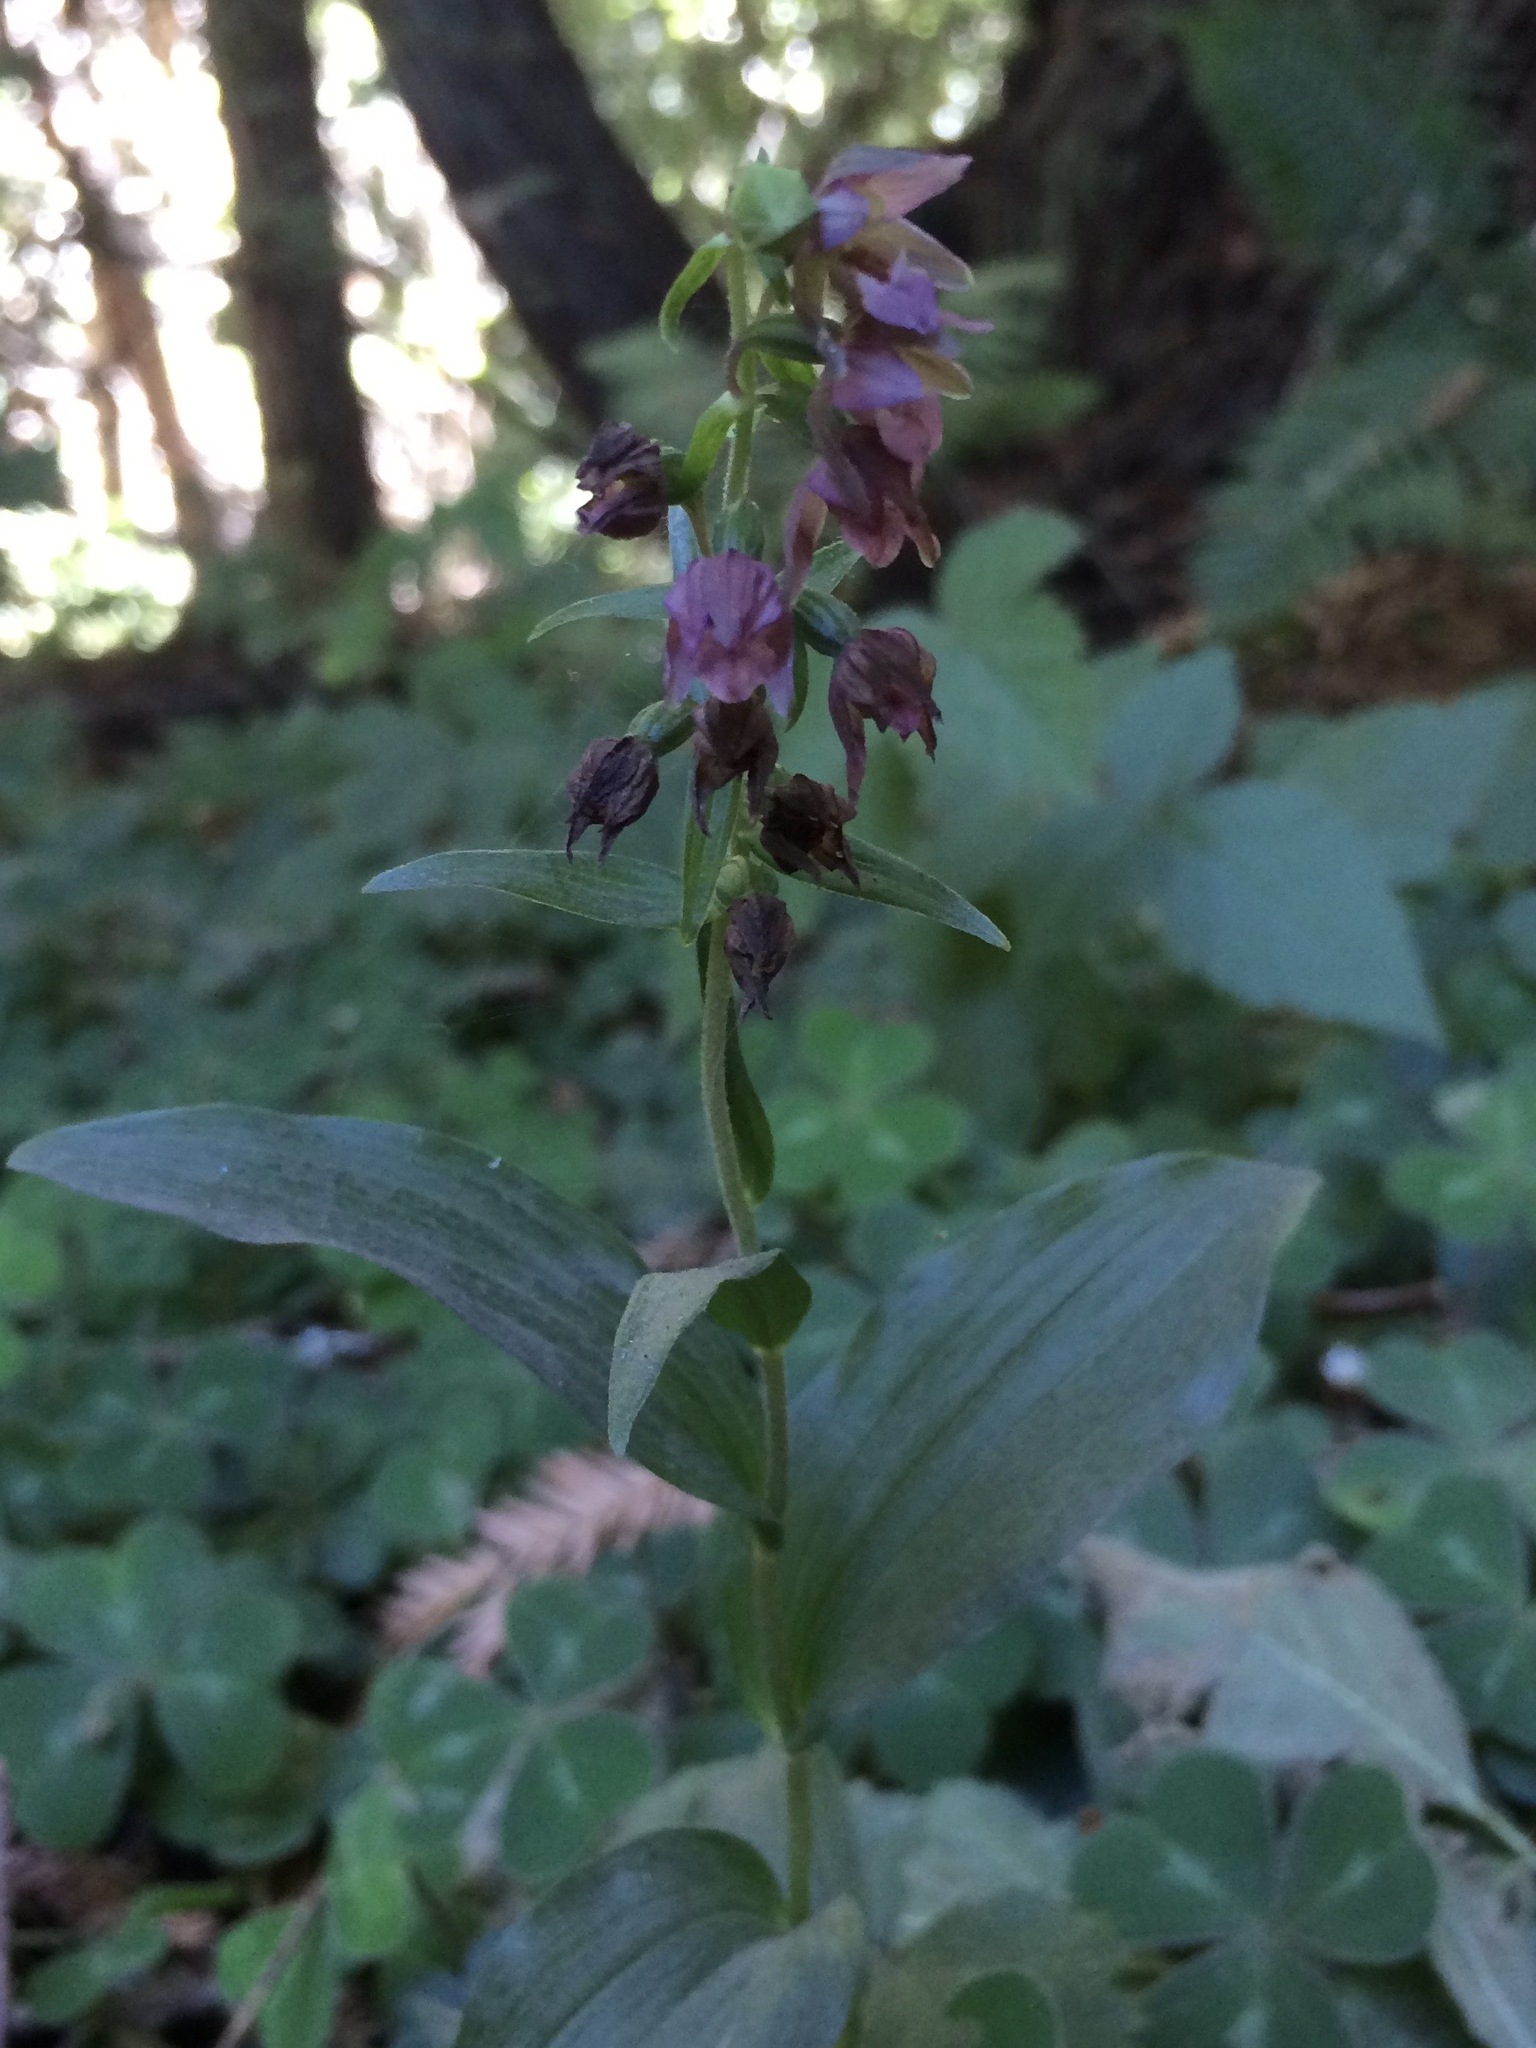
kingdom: Plantae
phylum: Tracheophyta
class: Liliopsida
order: Asparagales
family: Orchidaceae
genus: Epipactis
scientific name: Epipactis helleborine
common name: Broad-leaved helleborine
